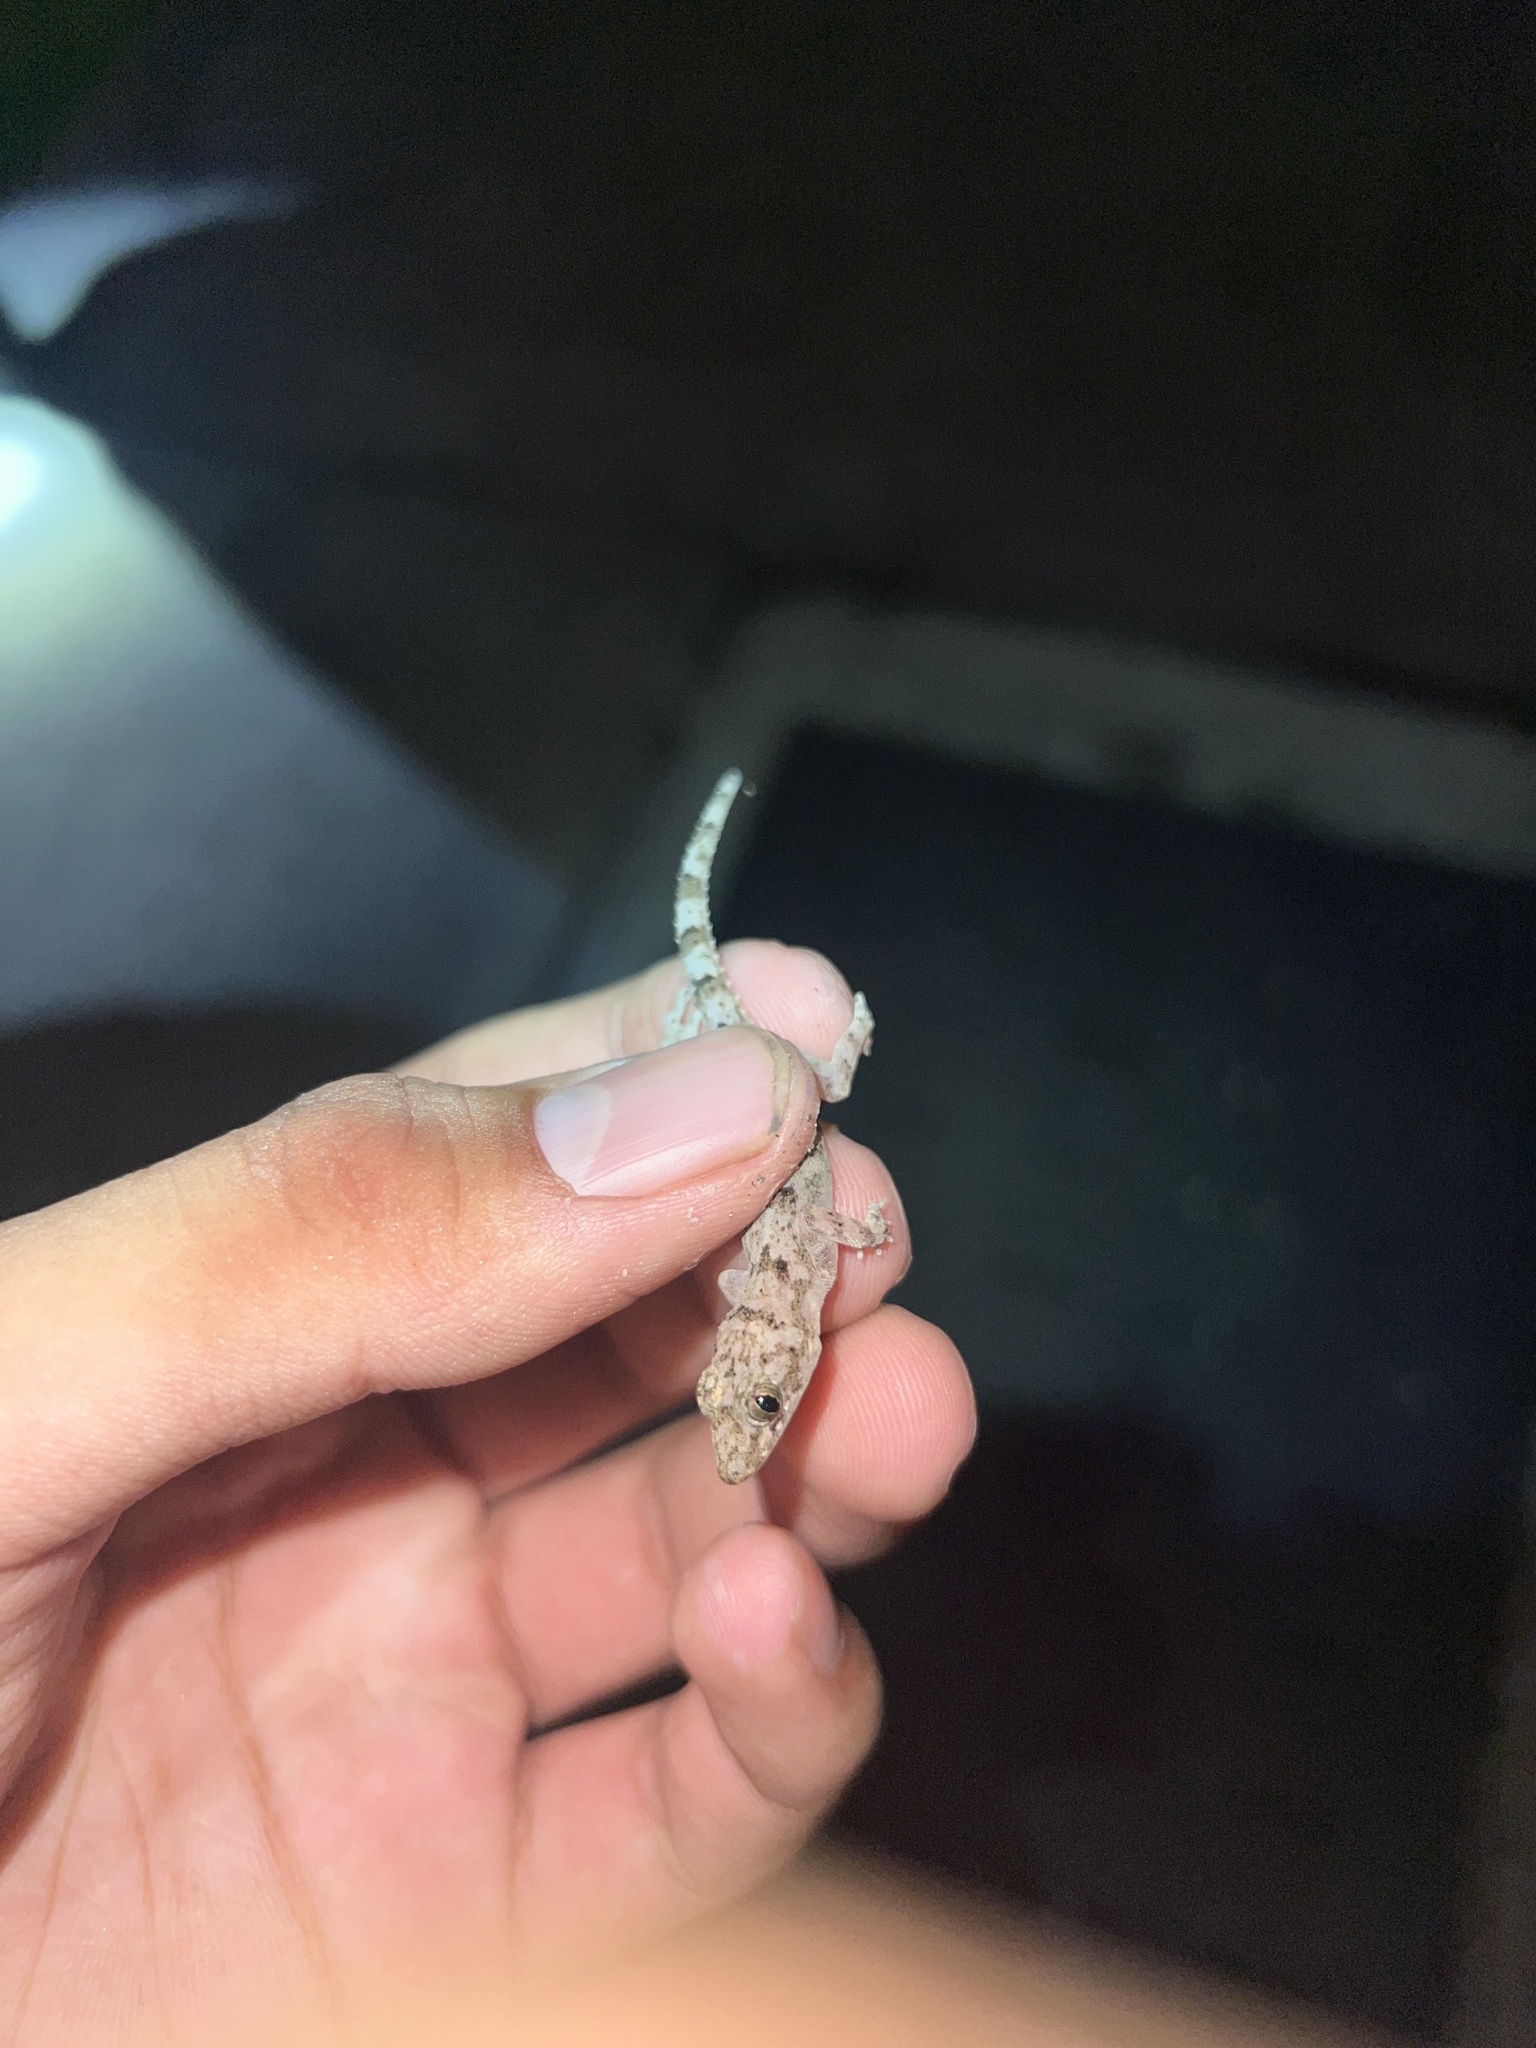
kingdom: Animalia
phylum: Chordata
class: Squamata
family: Gekkonidae
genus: Hemidactylus
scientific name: Hemidactylus mabouia
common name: House gecko
